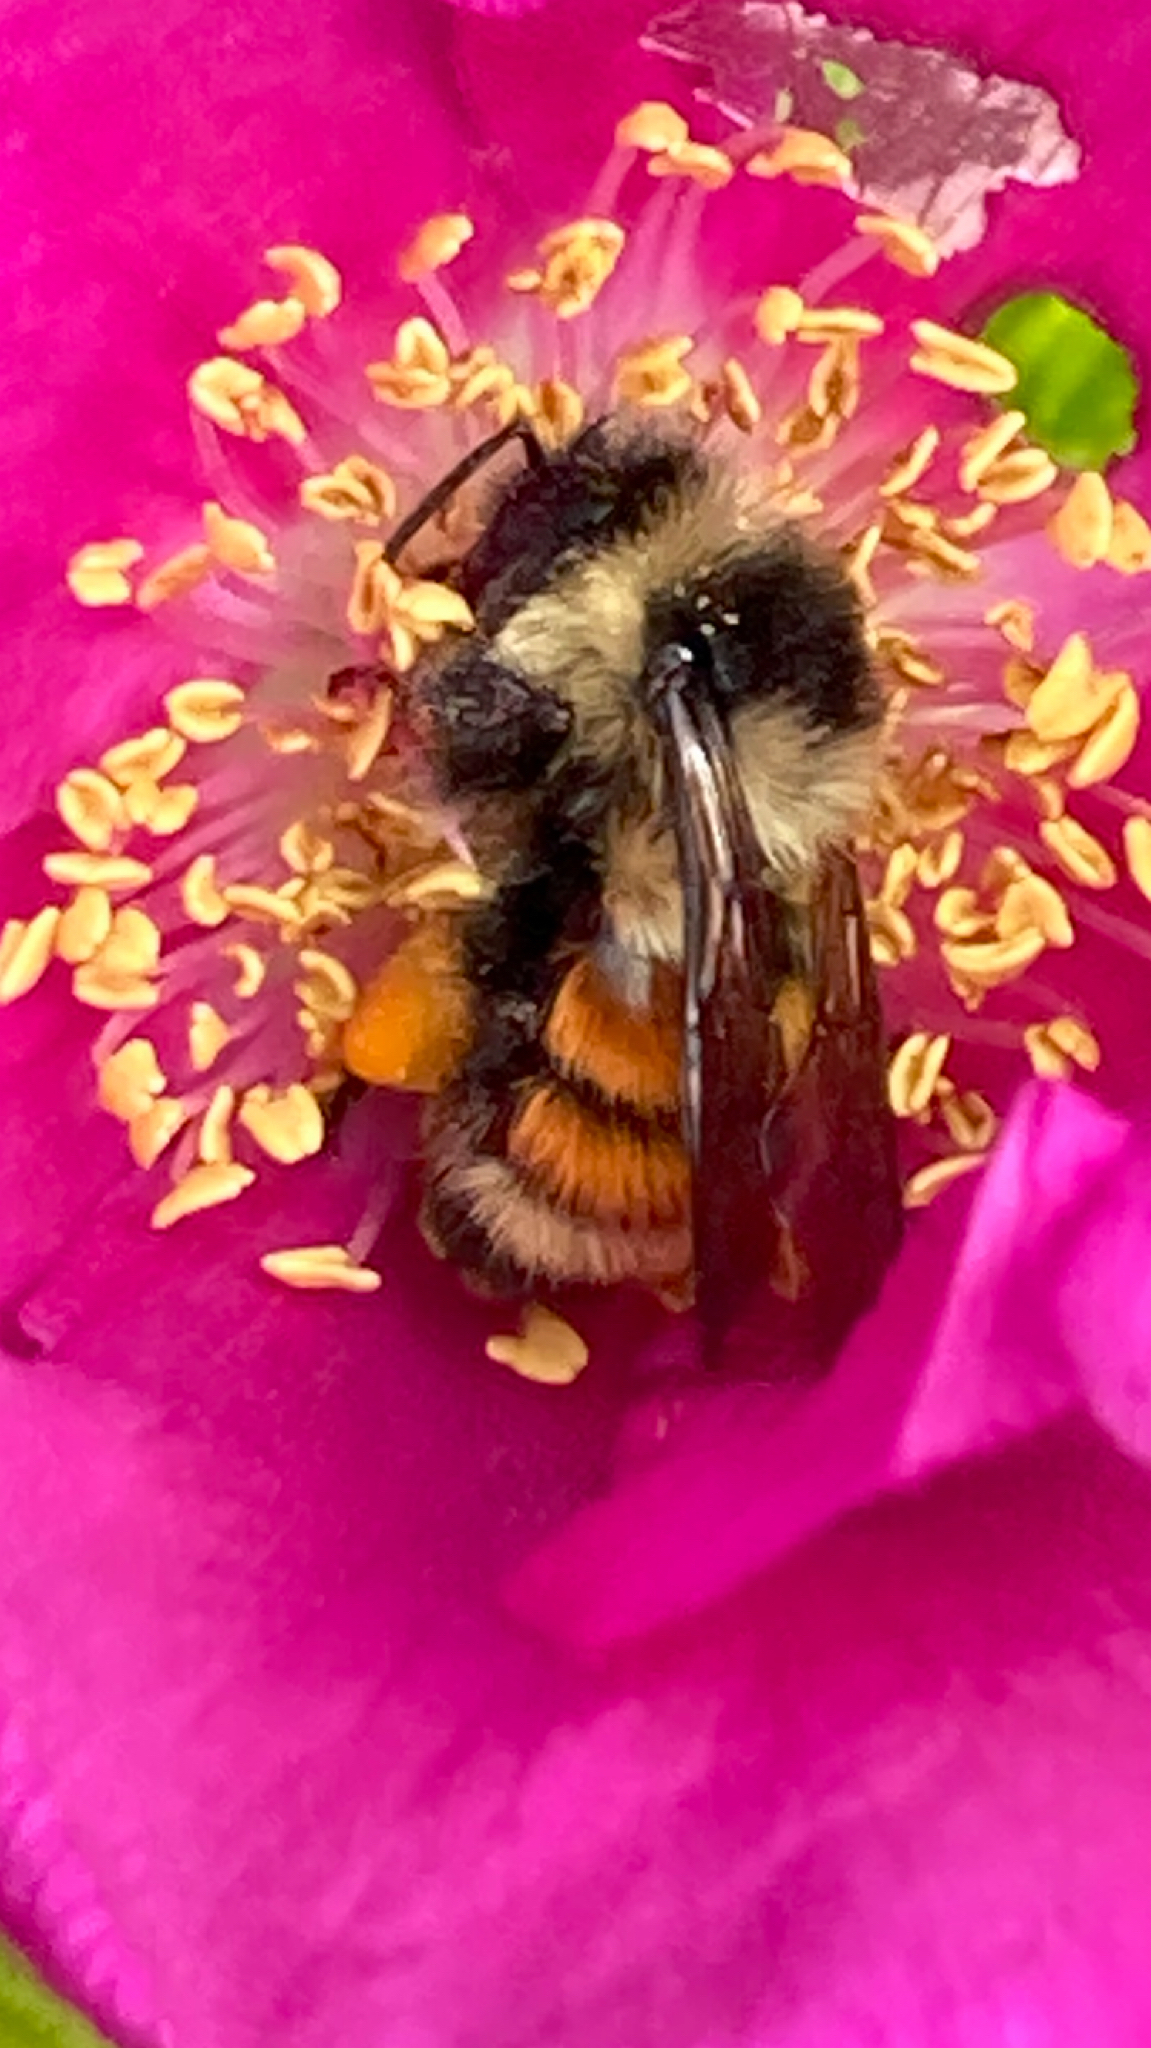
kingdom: Animalia
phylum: Arthropoda
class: Insecta
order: Hymenoptera
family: Apidae
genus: Bombus
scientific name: Bombus ternarius
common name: Tri-colored bumble bee
